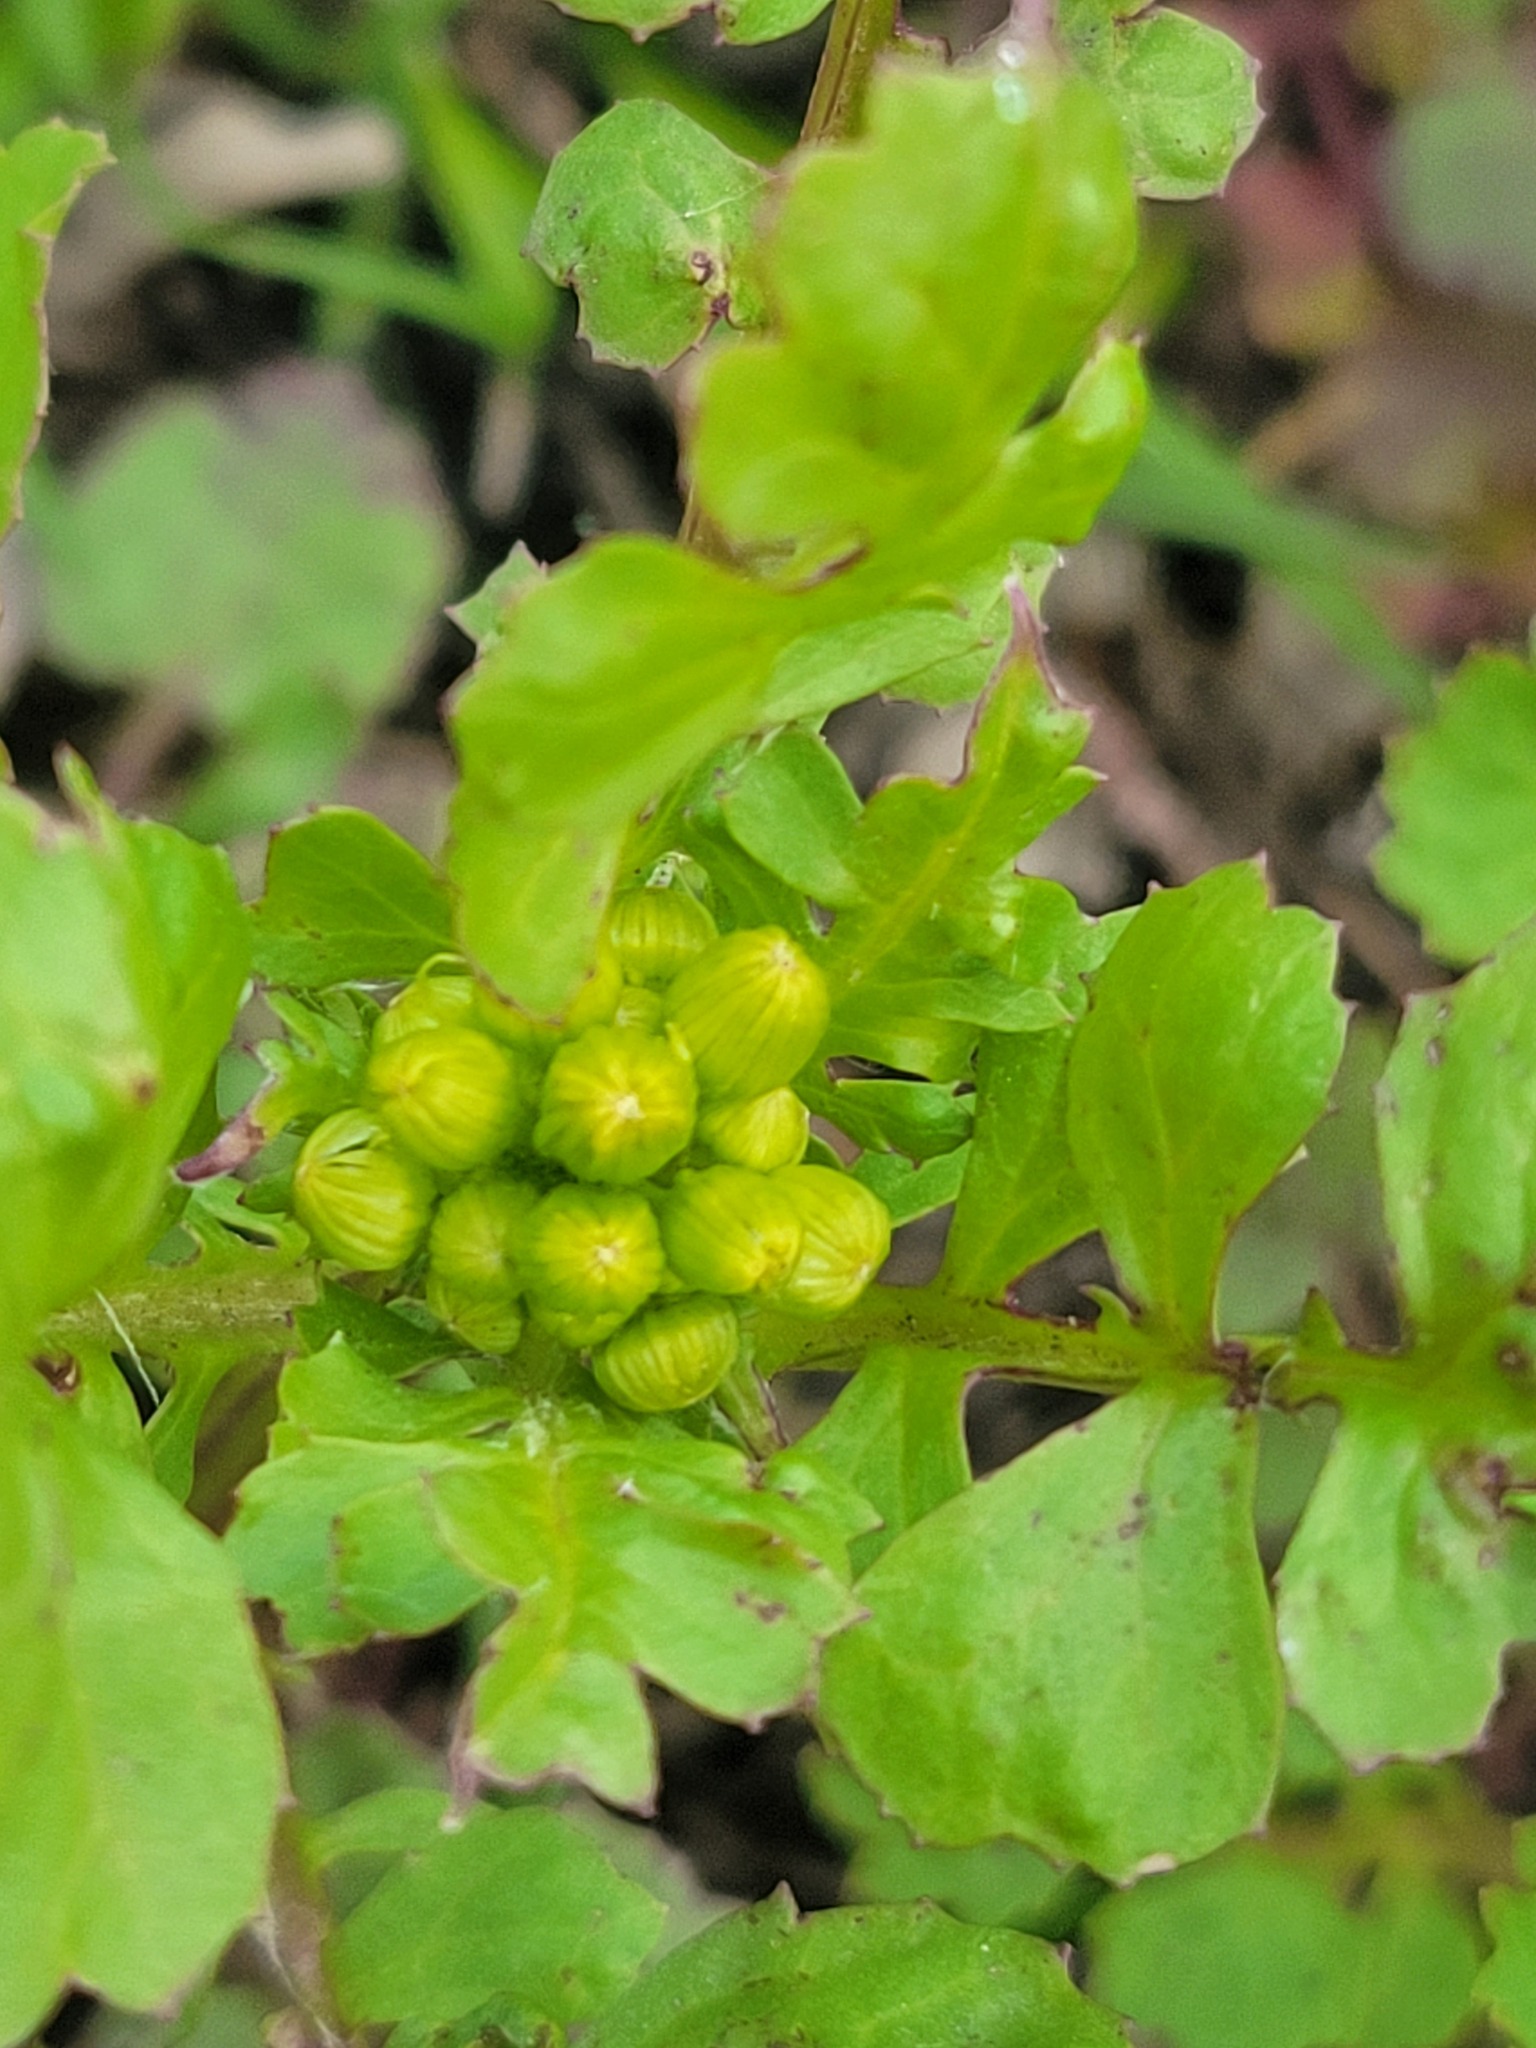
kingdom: Plantae
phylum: Tracheophyta
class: Magnoliopsida
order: Asterales
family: Asteraceae
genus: Packera
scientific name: Packera glabella
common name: Butterweed
